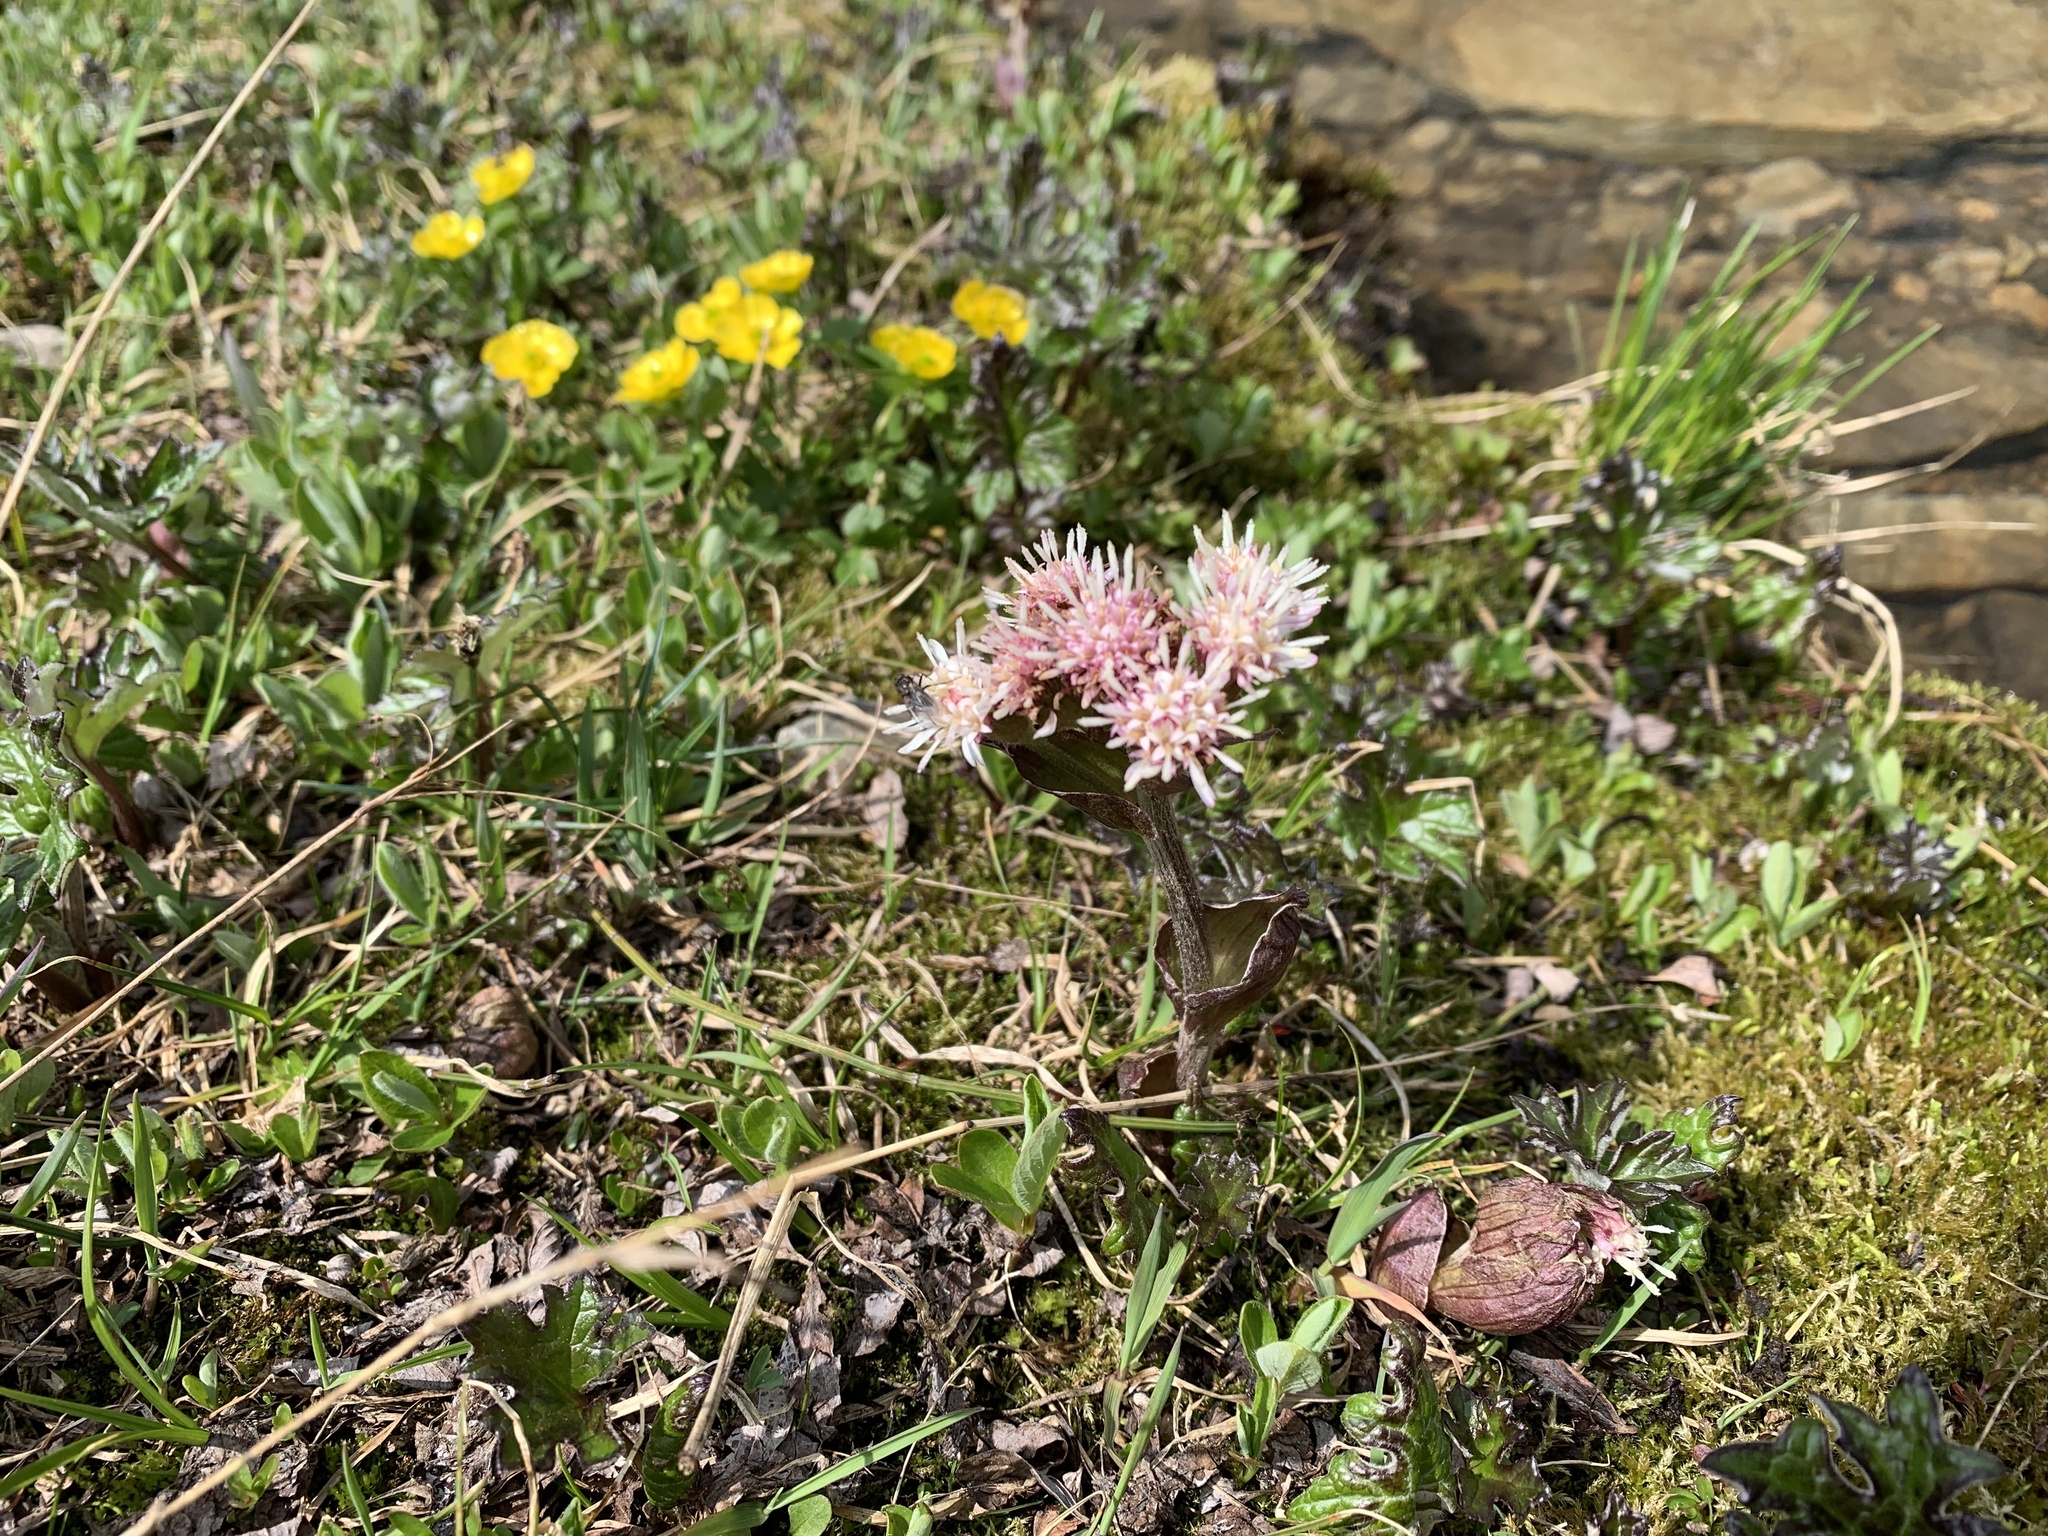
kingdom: Plantae
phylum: Tracheophyta
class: Magnoliopsida
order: Asterales
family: Asteraceae
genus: Petasites
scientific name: Petasites frigidus
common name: Arctic butterbur
